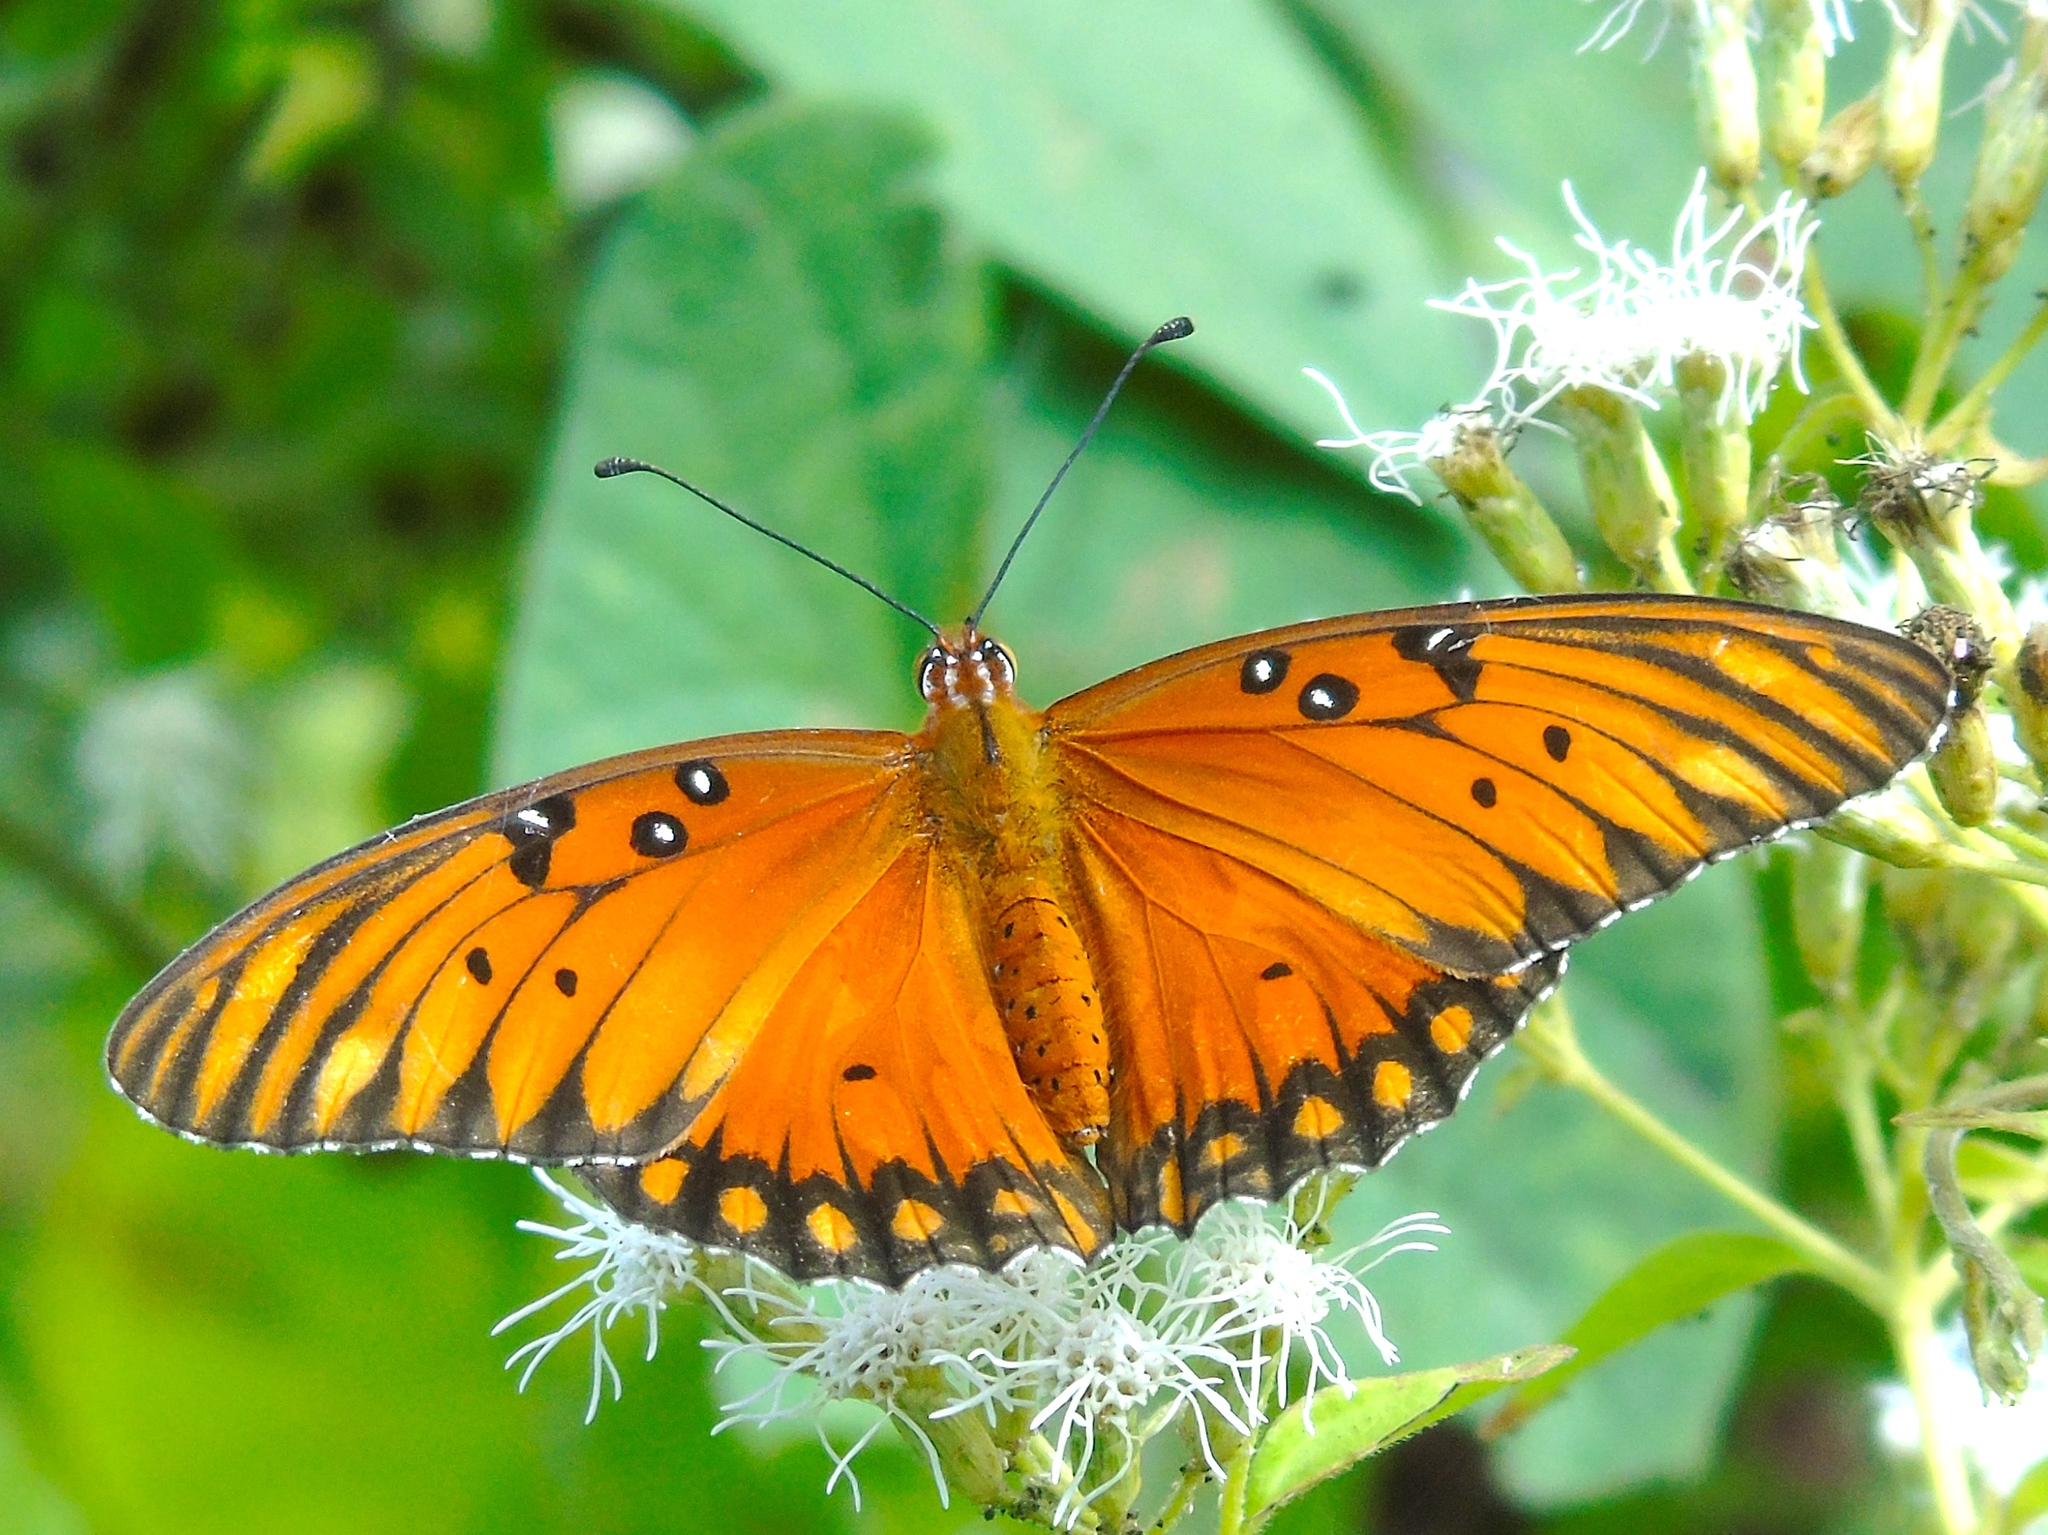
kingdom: Animalia
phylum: Arthropoda
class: Insecta
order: Lepidoptera
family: Nymphalidae
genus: Dione
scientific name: Dione vanillae
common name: Gulf fritillary
